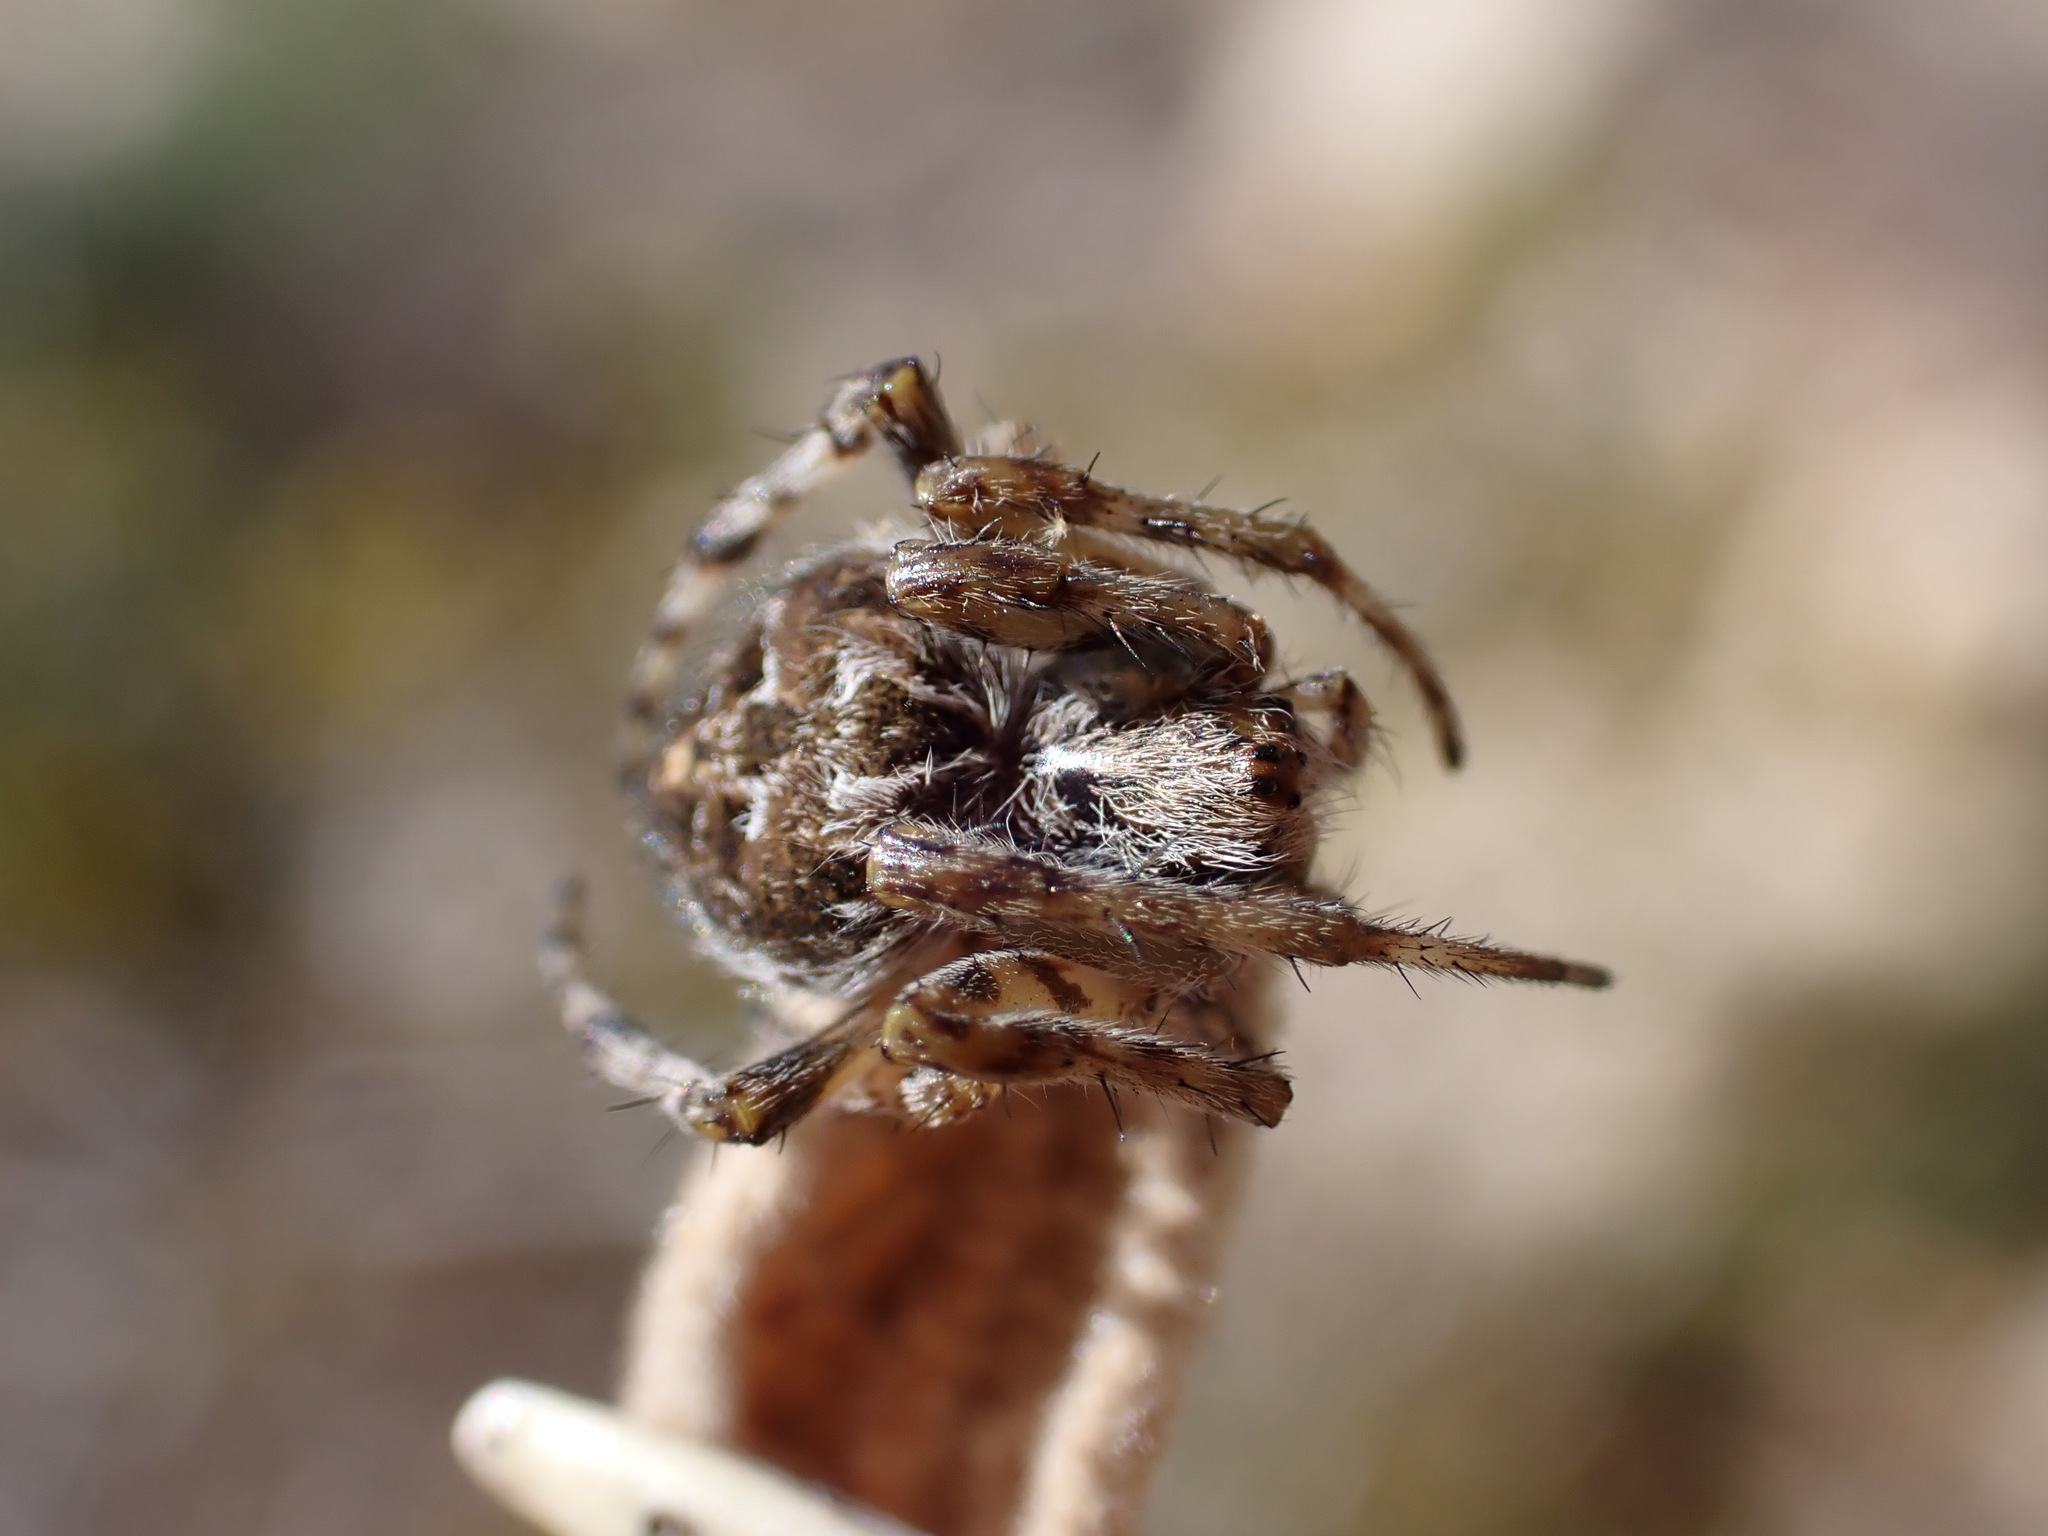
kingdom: Animalia
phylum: Arthropoda
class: Arachnida
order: Araneae
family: Araneidae
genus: Agalenatea
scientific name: Agalenatea redii
